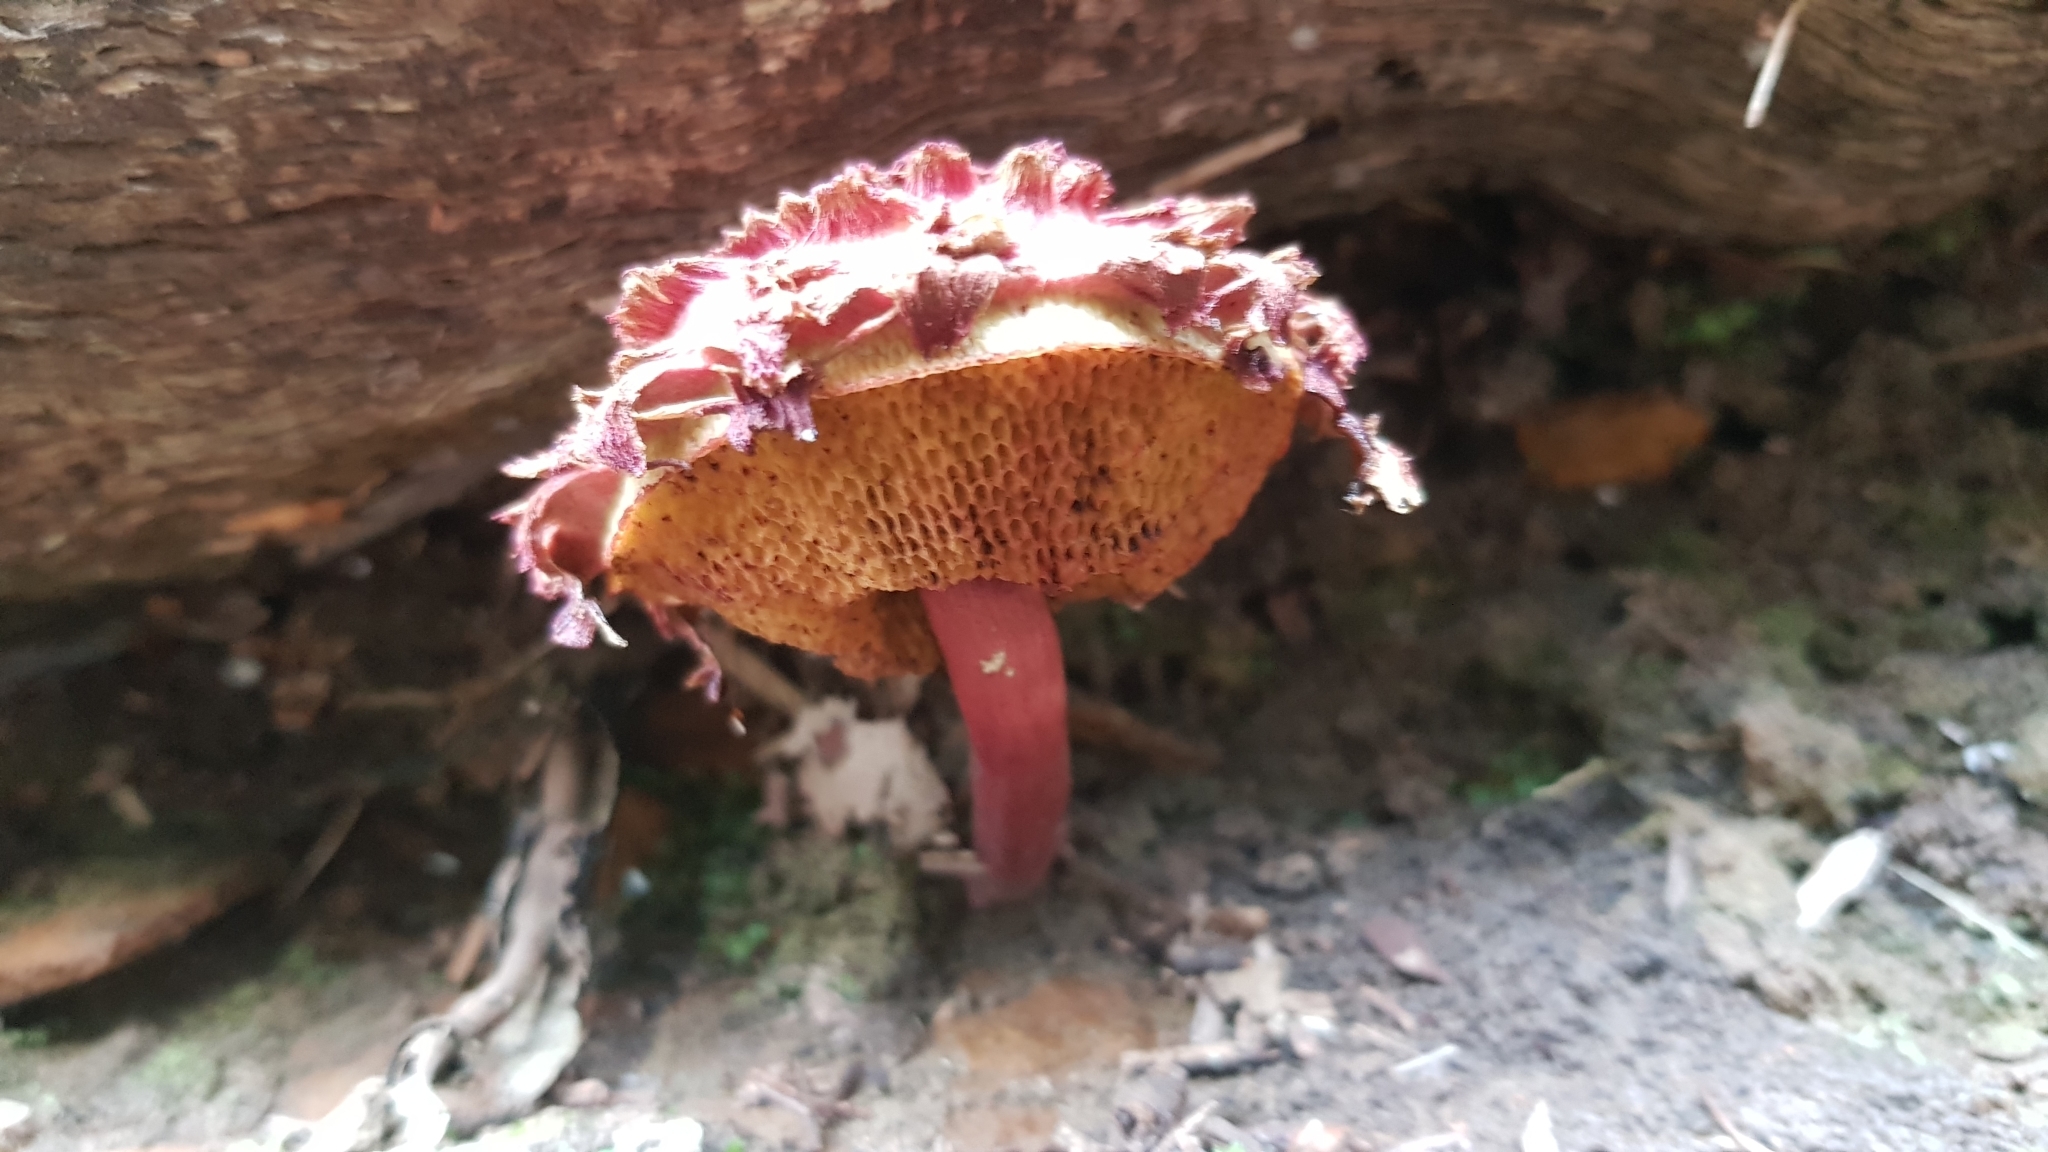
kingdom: Fungi
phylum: Basidiomycota
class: Agaricomycetes
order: Boletales
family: Boletaceae
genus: Boletellus
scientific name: Boletellus emodensis
